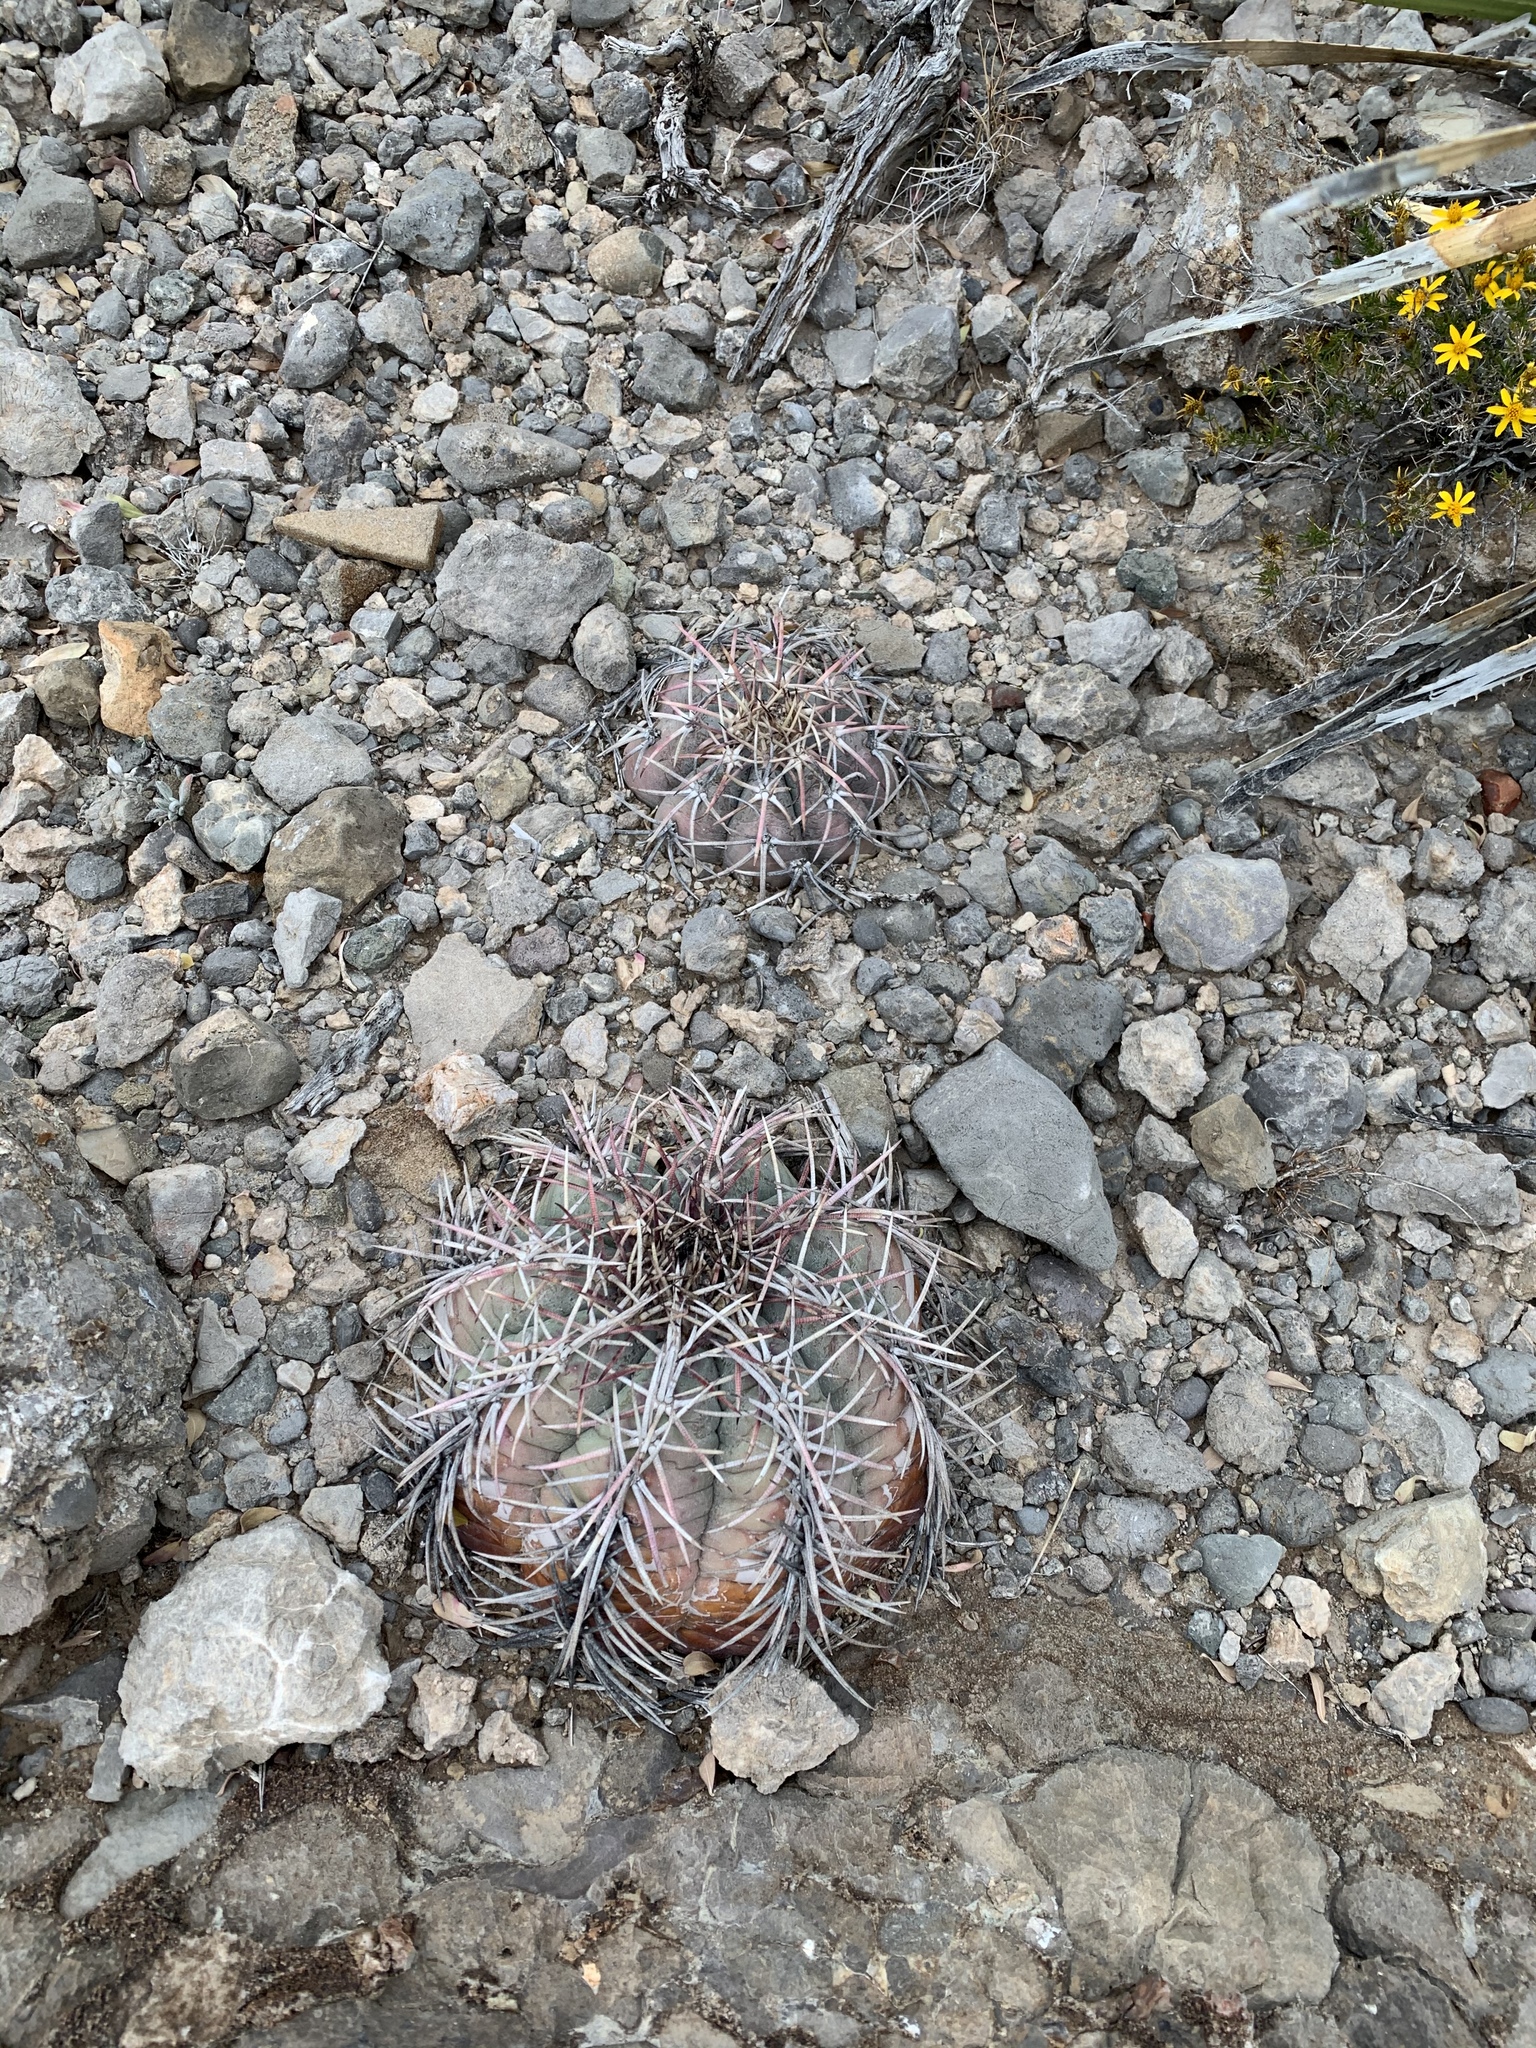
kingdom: Plantae
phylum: Tracheophyta
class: Magnoliopsida
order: Caryophyllales
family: Cactaceae
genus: Echinocactus
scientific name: Echinocactus horizonthalonius
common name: Devilshead
